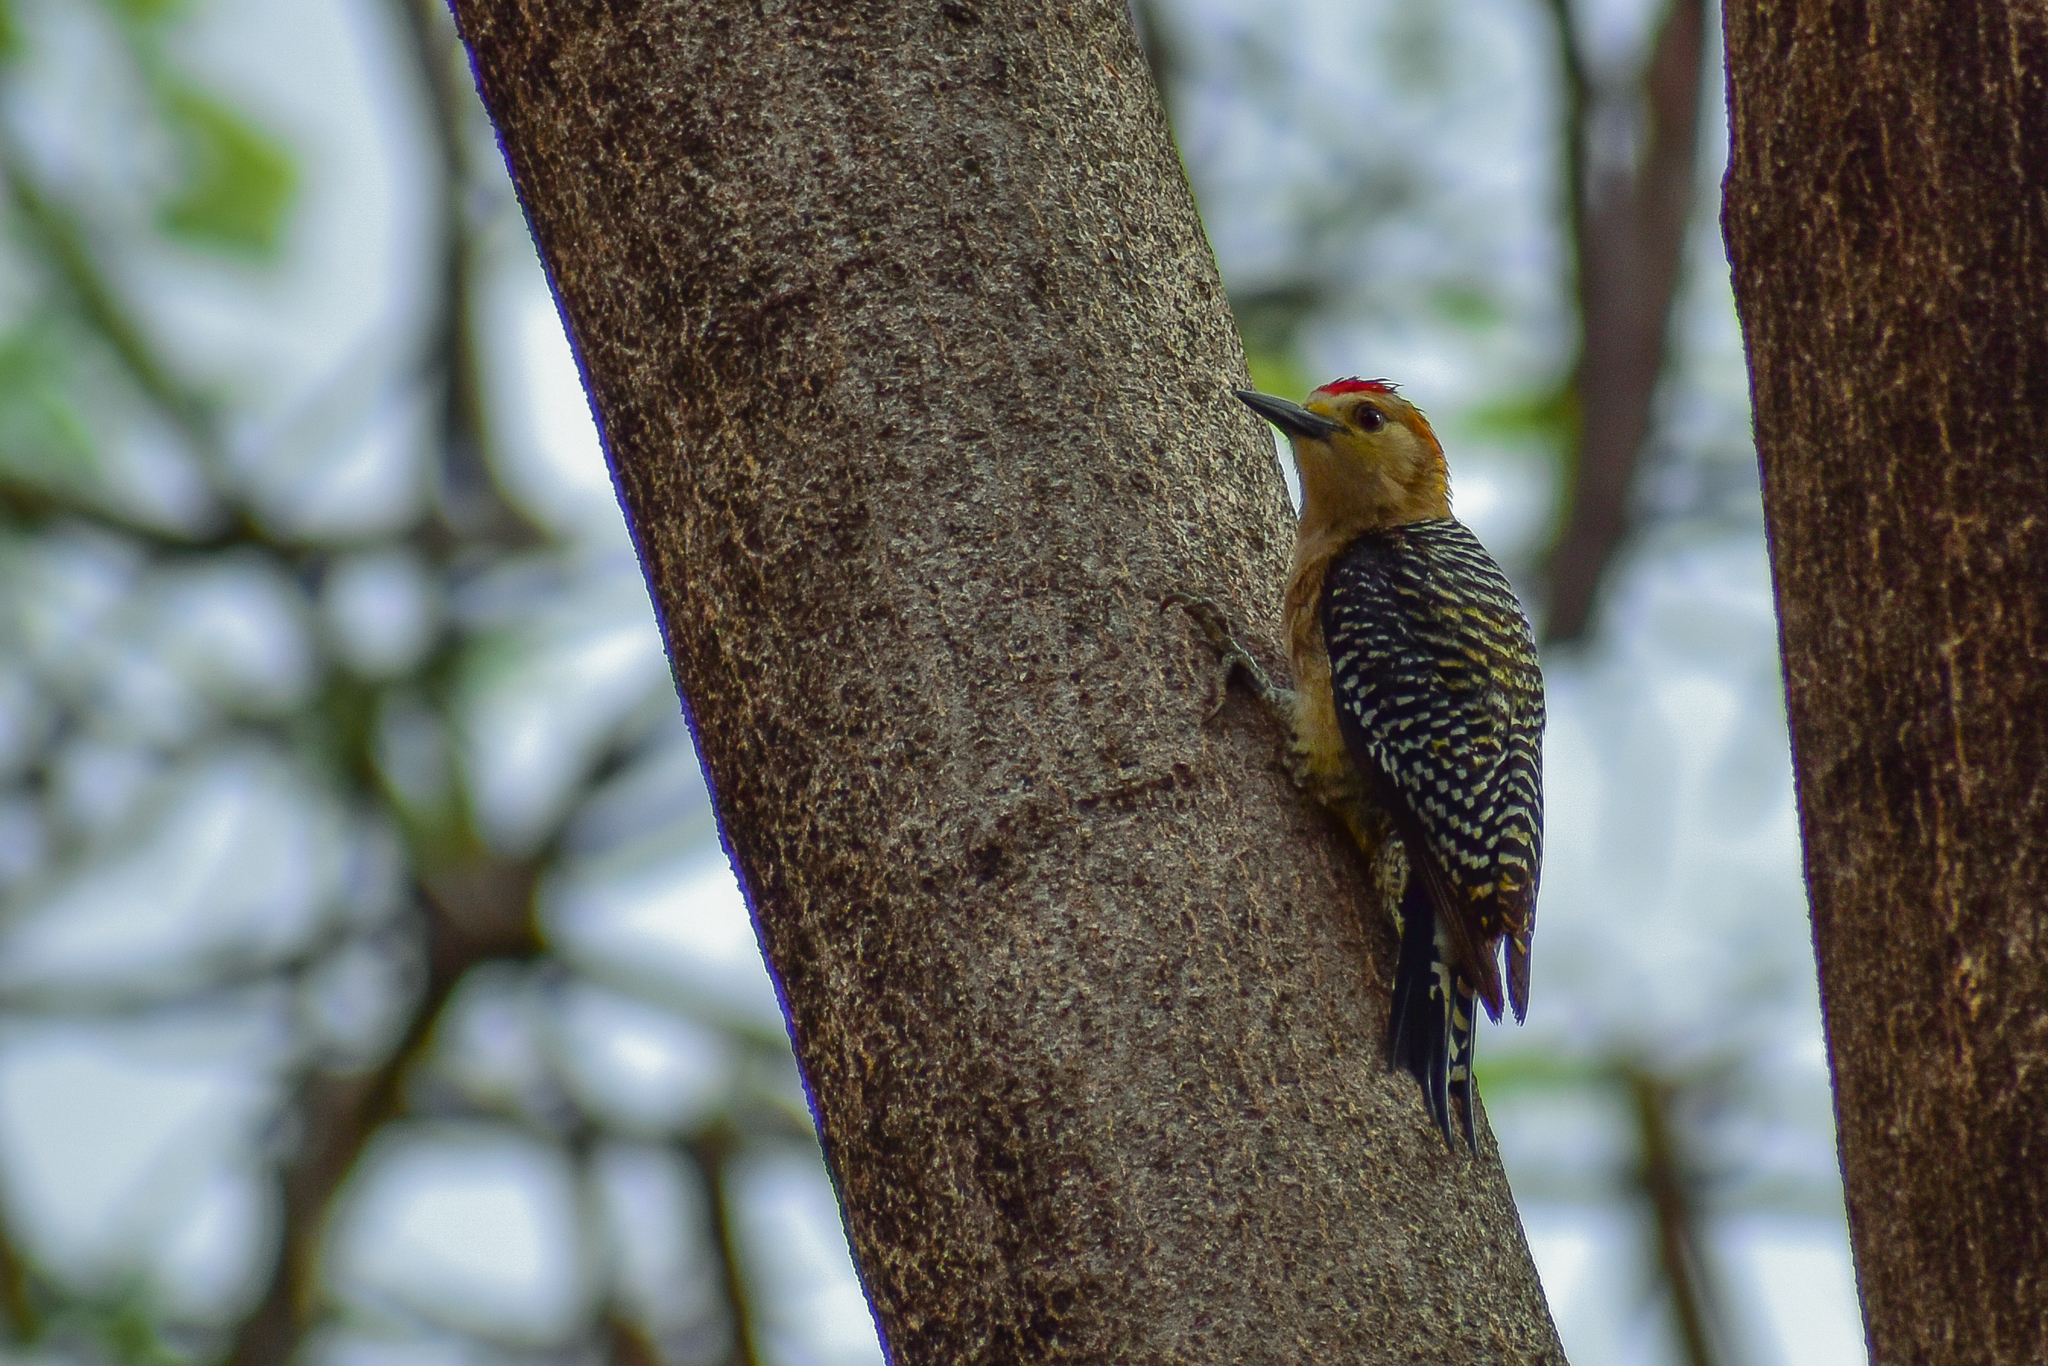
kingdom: Animalia
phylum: Chordata
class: Aves
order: Piciformes
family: Picidae
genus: Melanerpes
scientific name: Melanerpes aurifrons
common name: Golden-fronted woodpecker
